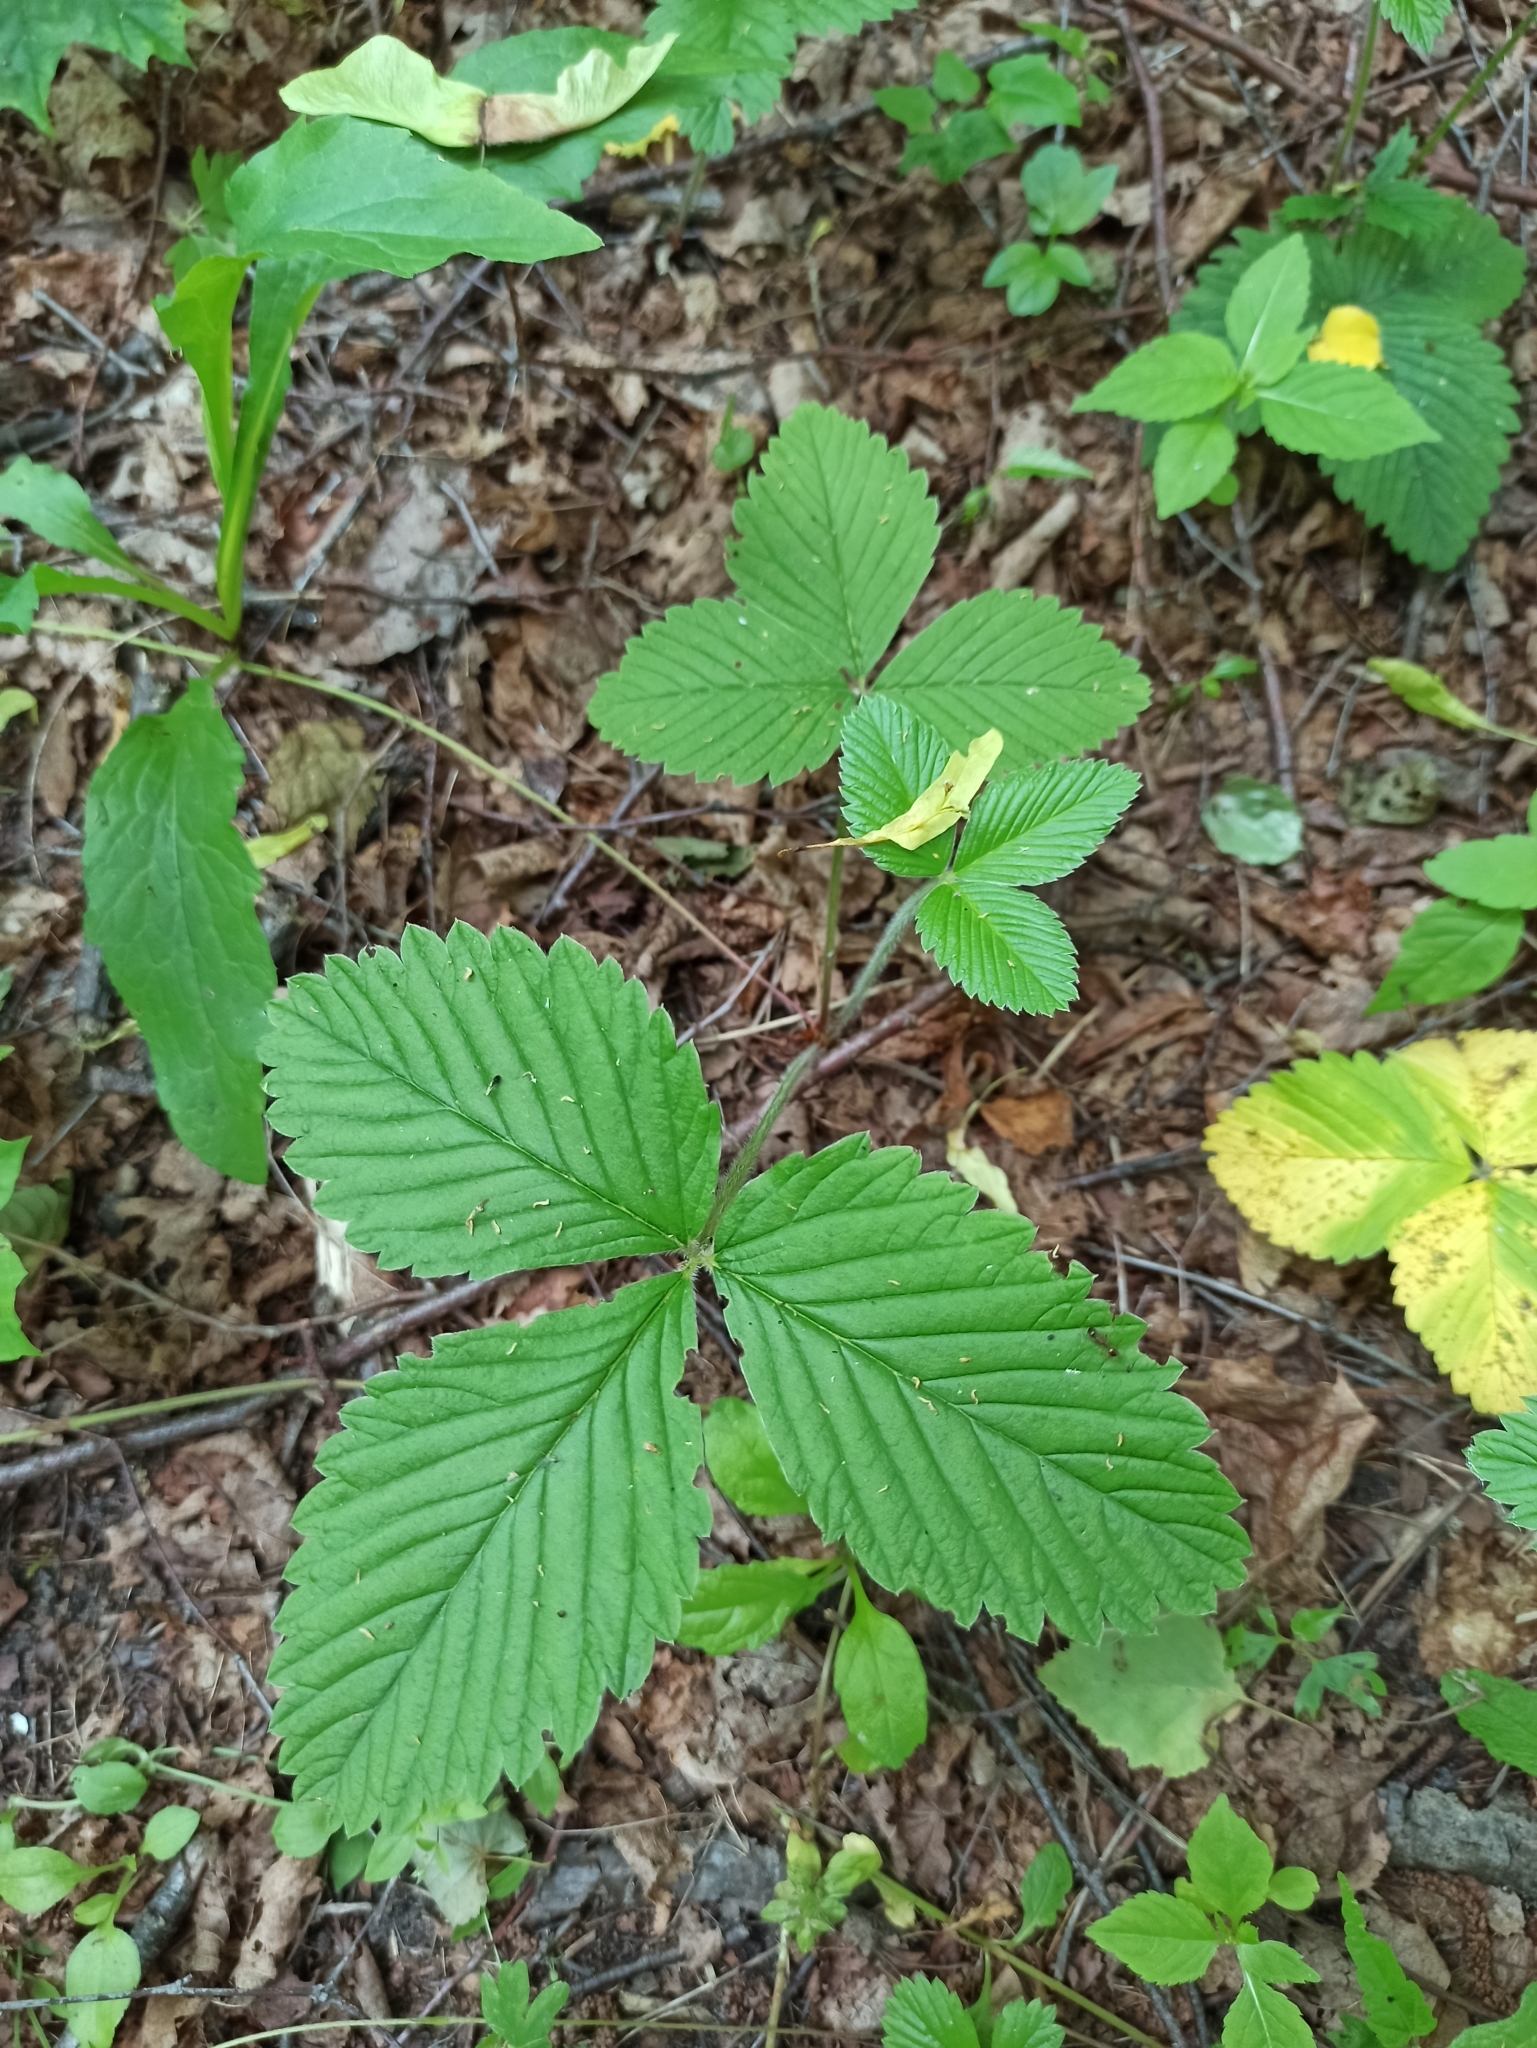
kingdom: Plantae
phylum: Tracheophyta
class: Magnoliopsida
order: Rosales
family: Rosaceae
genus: Fragaria
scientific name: Fragaria moschata
